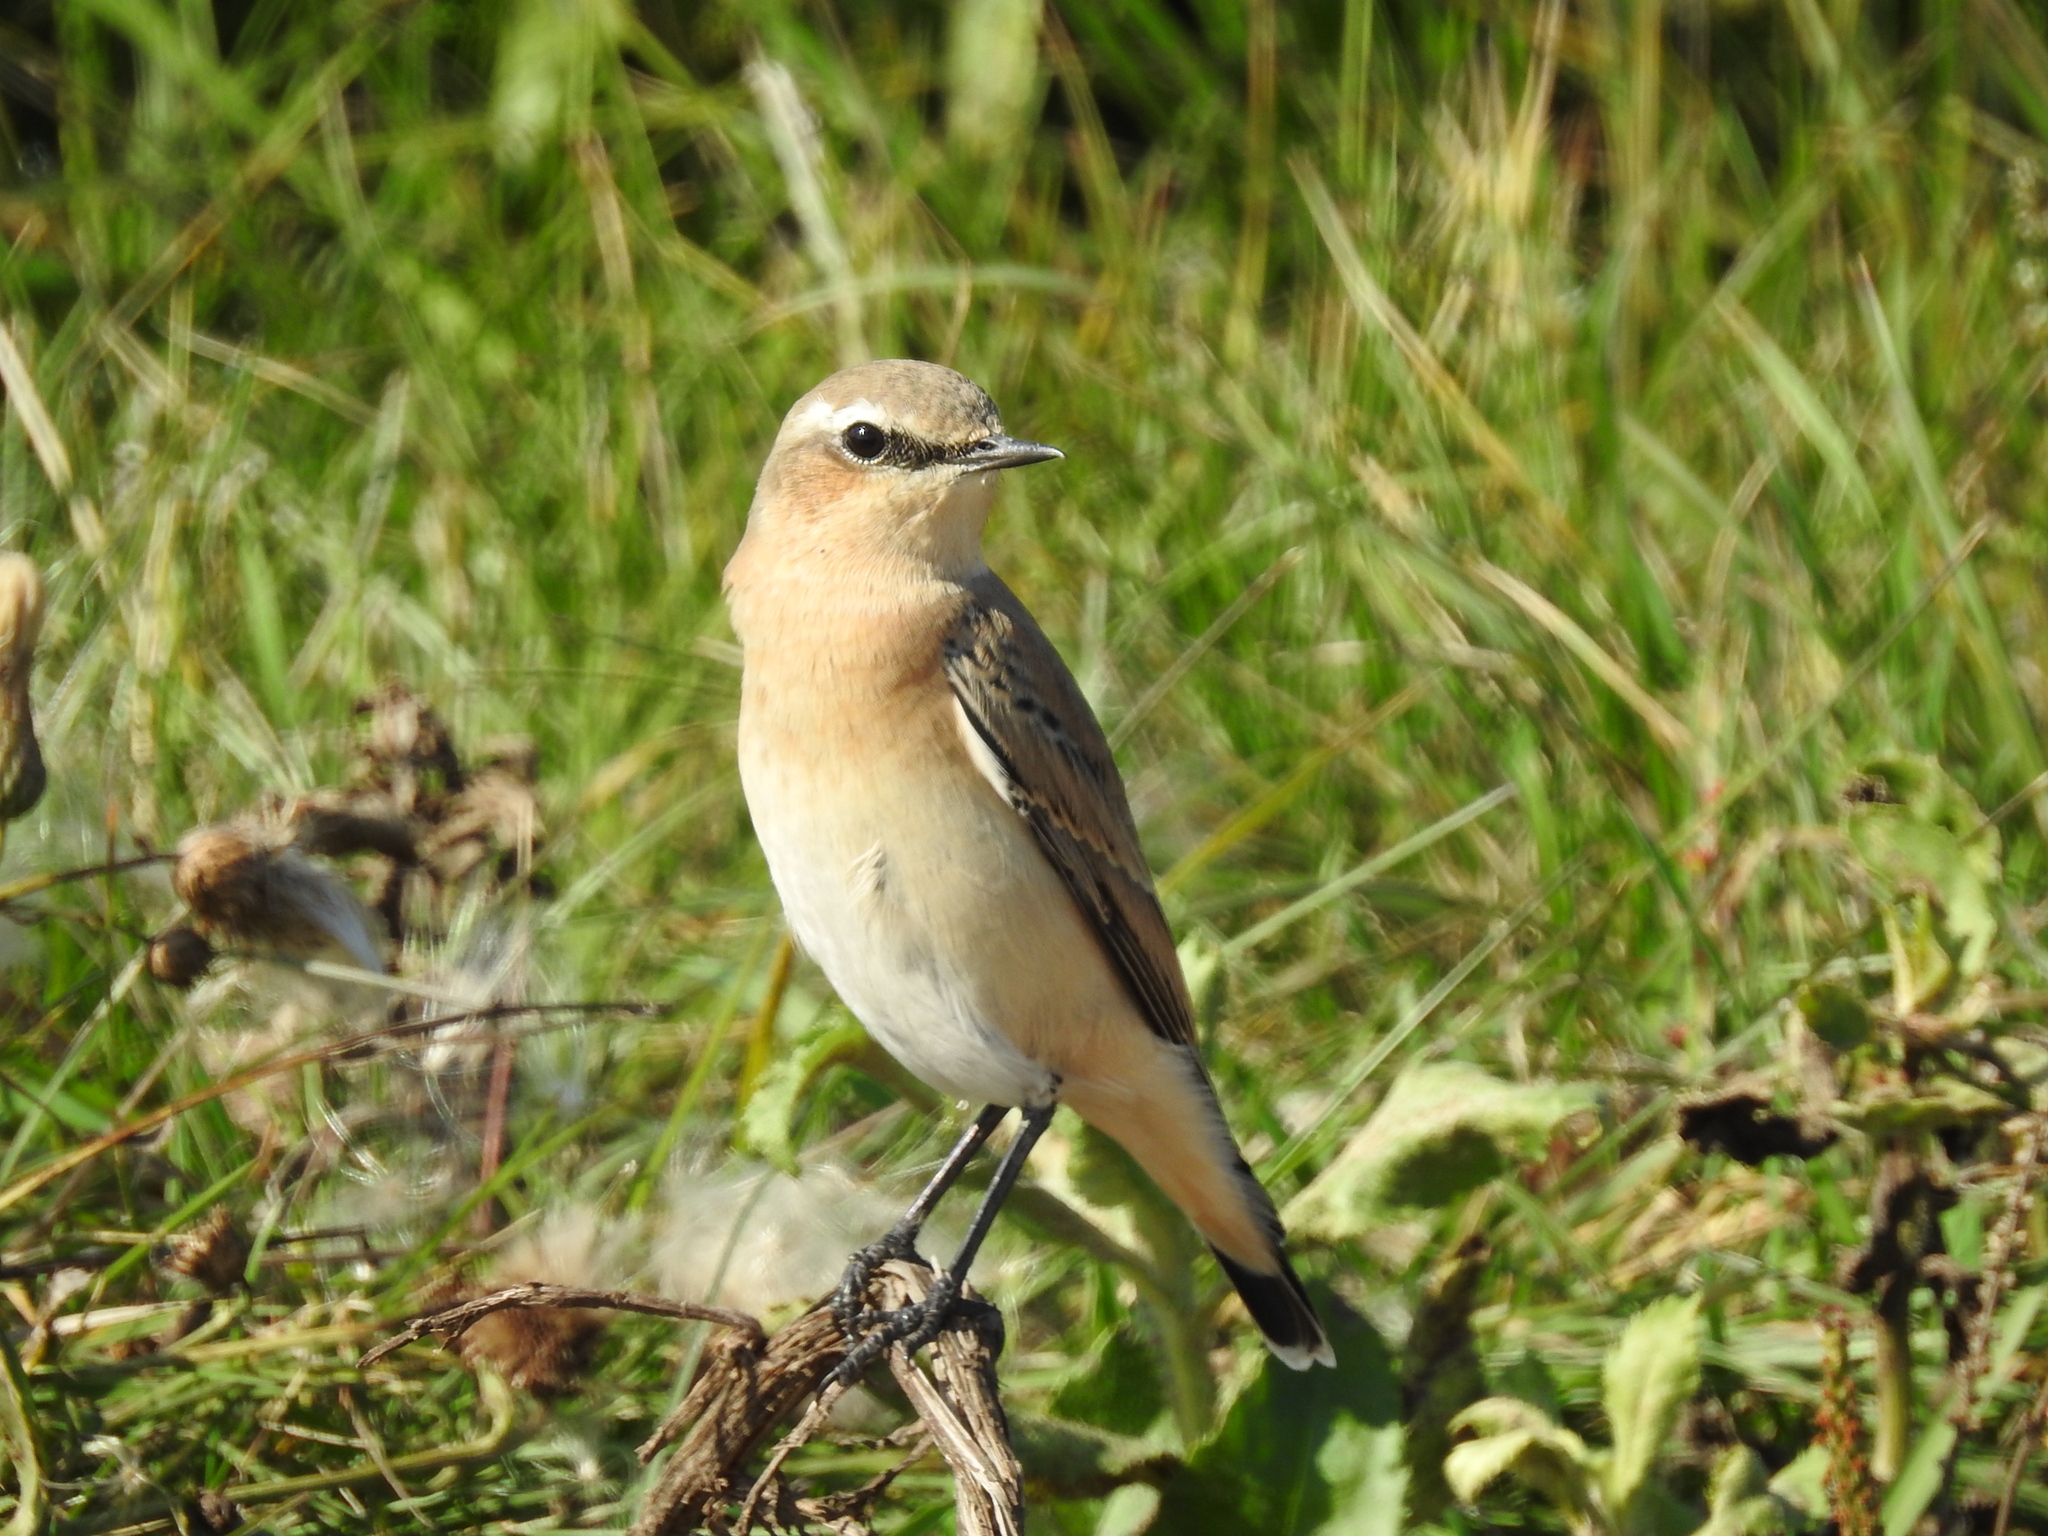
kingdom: Animalia
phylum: Chordata
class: Aves
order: Passeriformes
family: Muscicapidae
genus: Oenanthe
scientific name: Oenanthe oenanthe
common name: Northern wheatear
